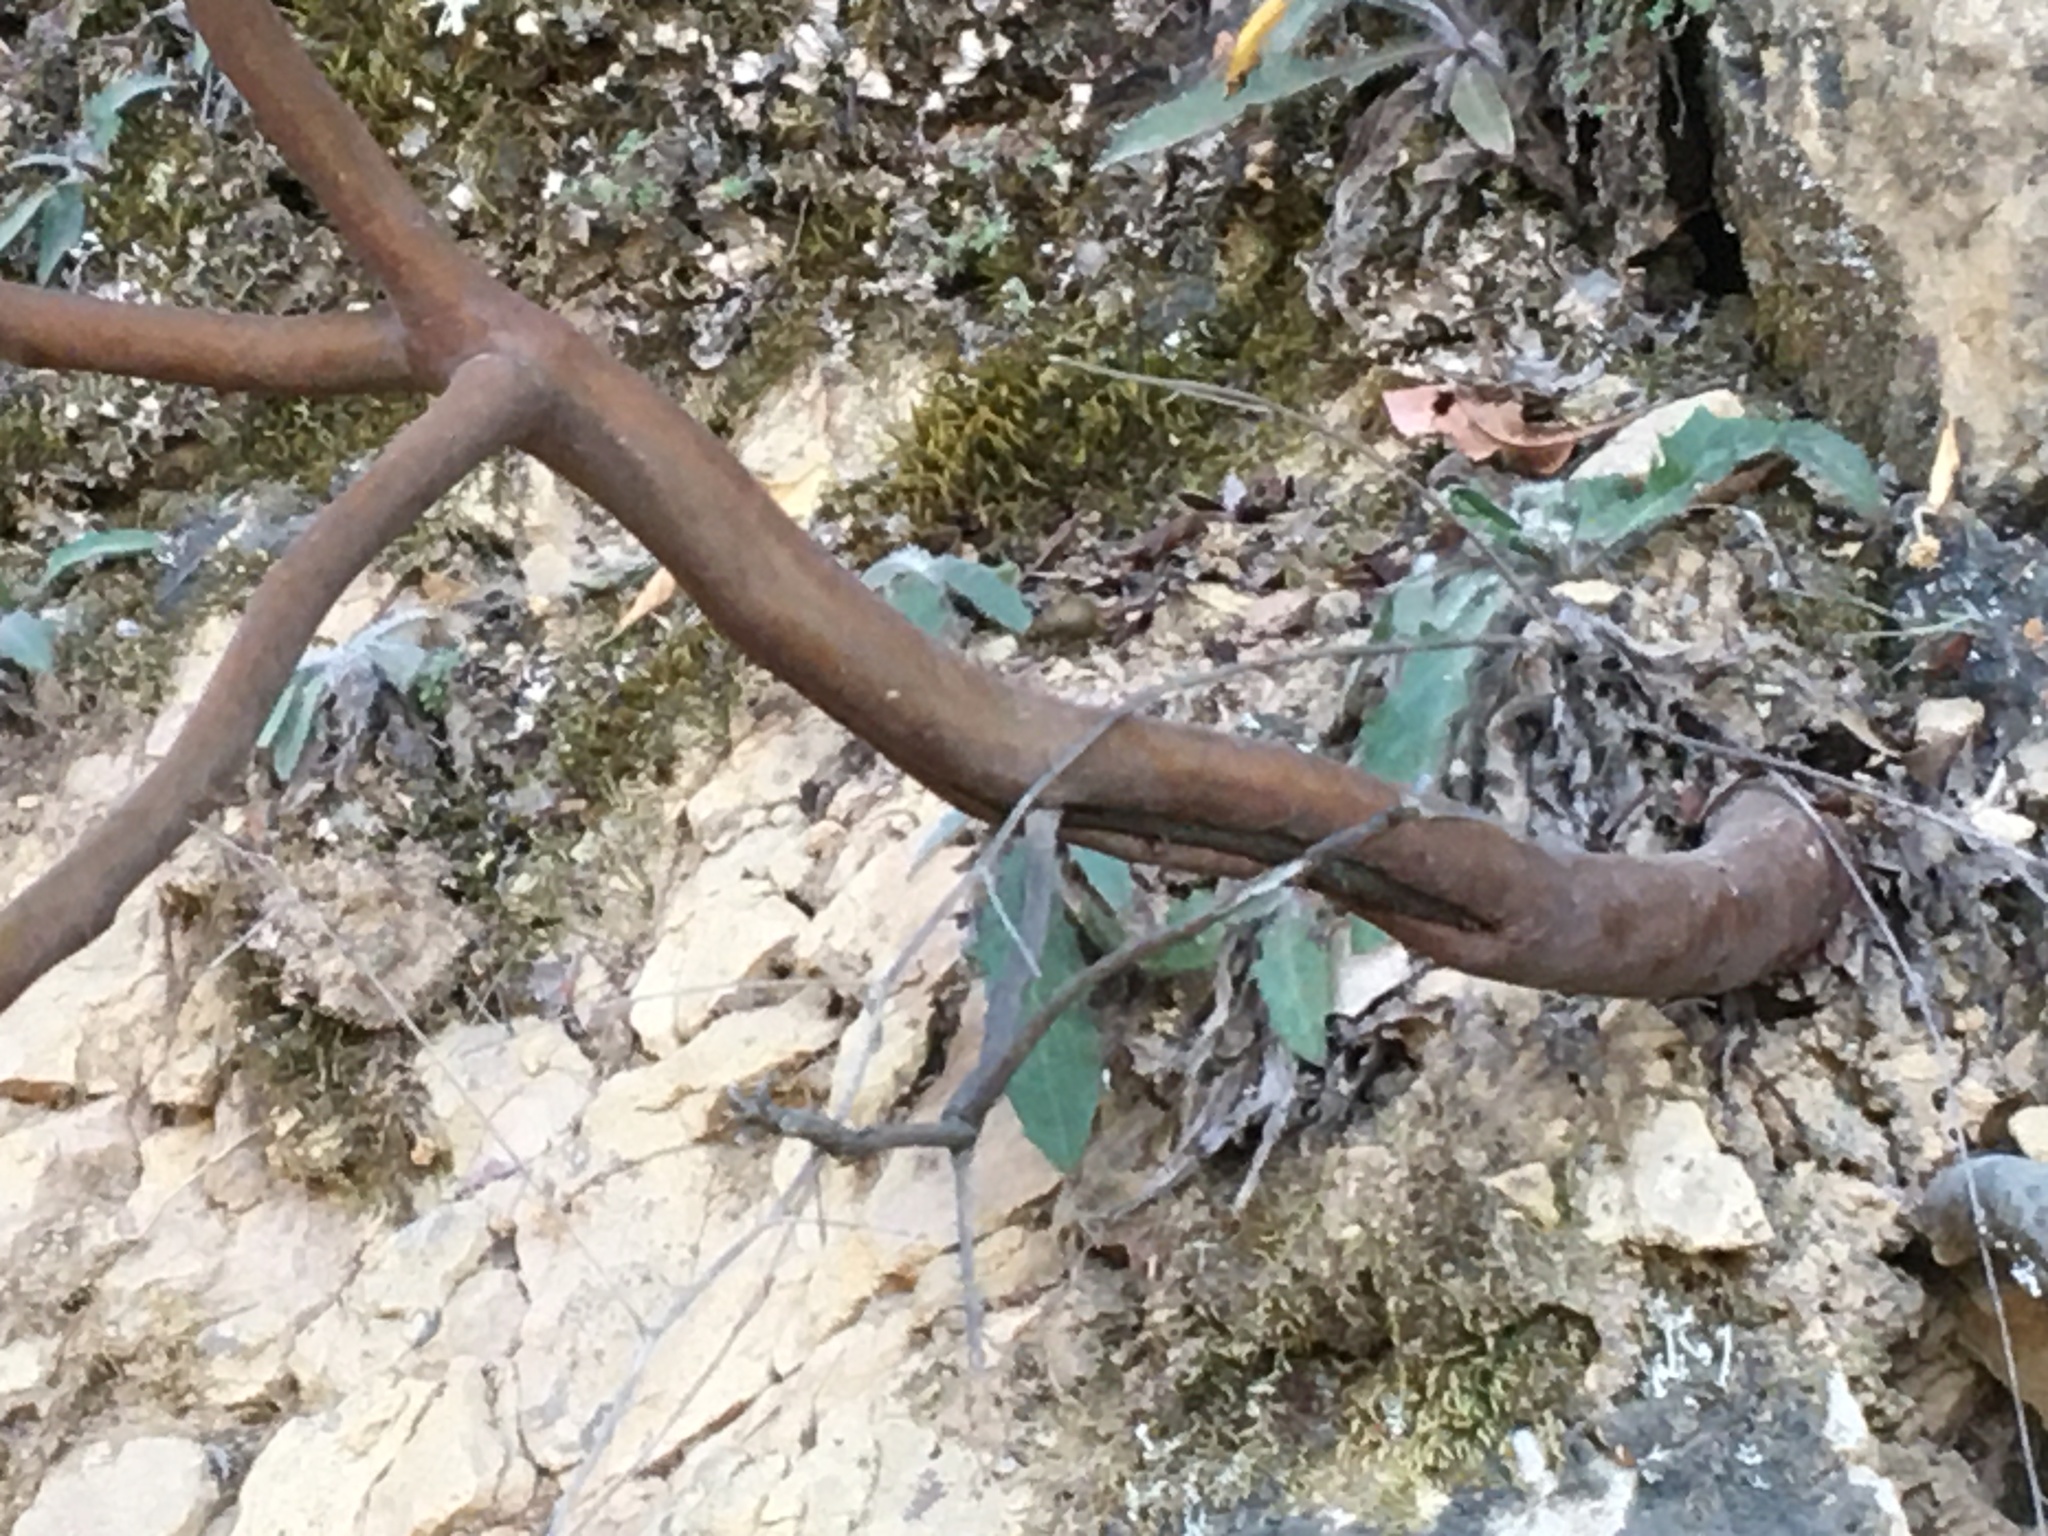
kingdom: Plantae
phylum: Tracheophyta
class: Magnoliopsida
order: Ericales
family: Ericaceae
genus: Arbutus
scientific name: Arbutus menziesii
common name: Pacific madrone
